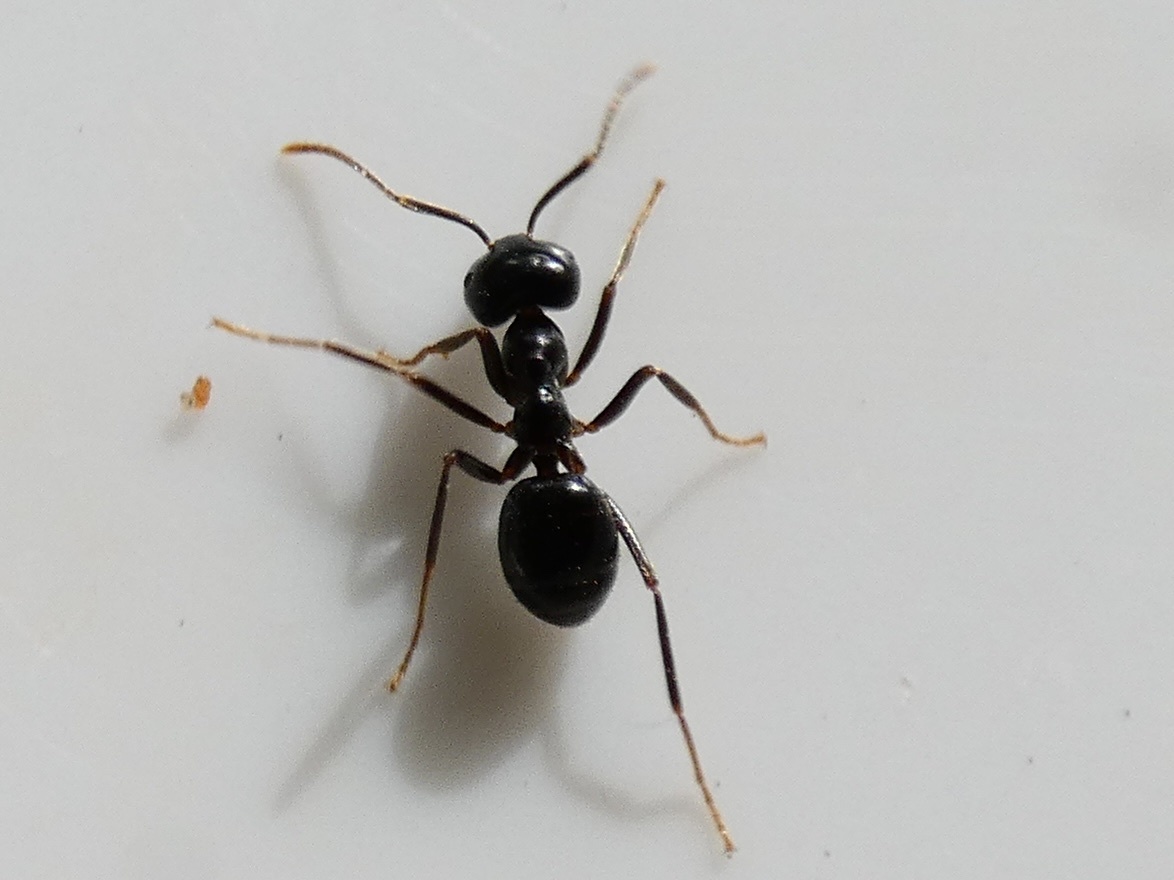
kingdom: Animalia
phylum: Arthropoda
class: Insecta
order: Hymenoptera
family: Formicidae
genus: Lasius
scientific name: Lasius fuliginosus
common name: Jet ant
